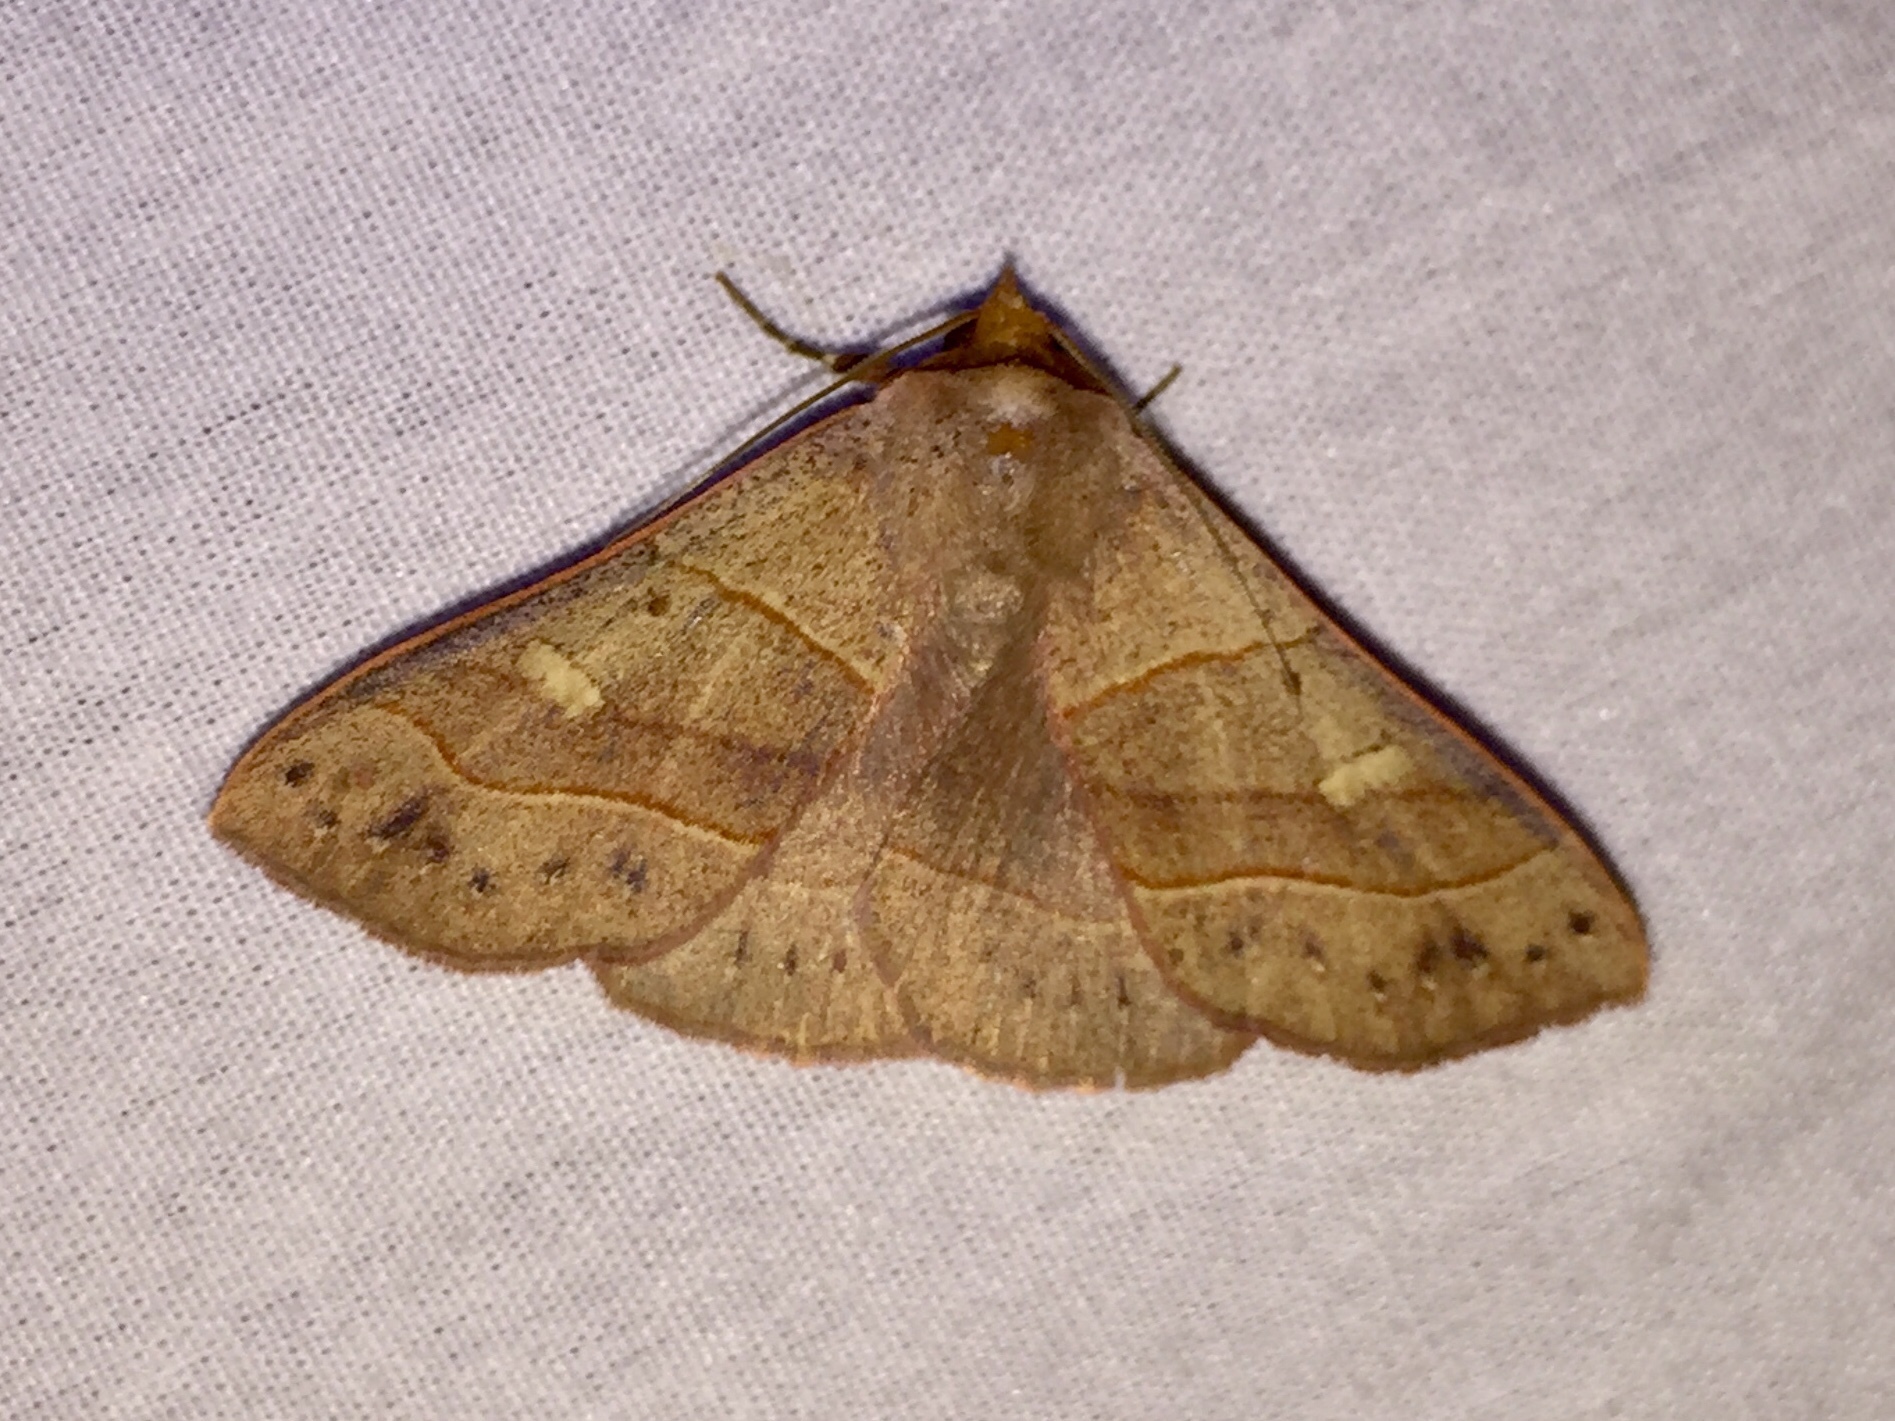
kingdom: Animalia
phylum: Arthropoda
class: Insecta
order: Lepidoptera
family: Erebidae
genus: Panopoda
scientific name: Panopoda rufimargo
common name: Red-lined panopoda moth
